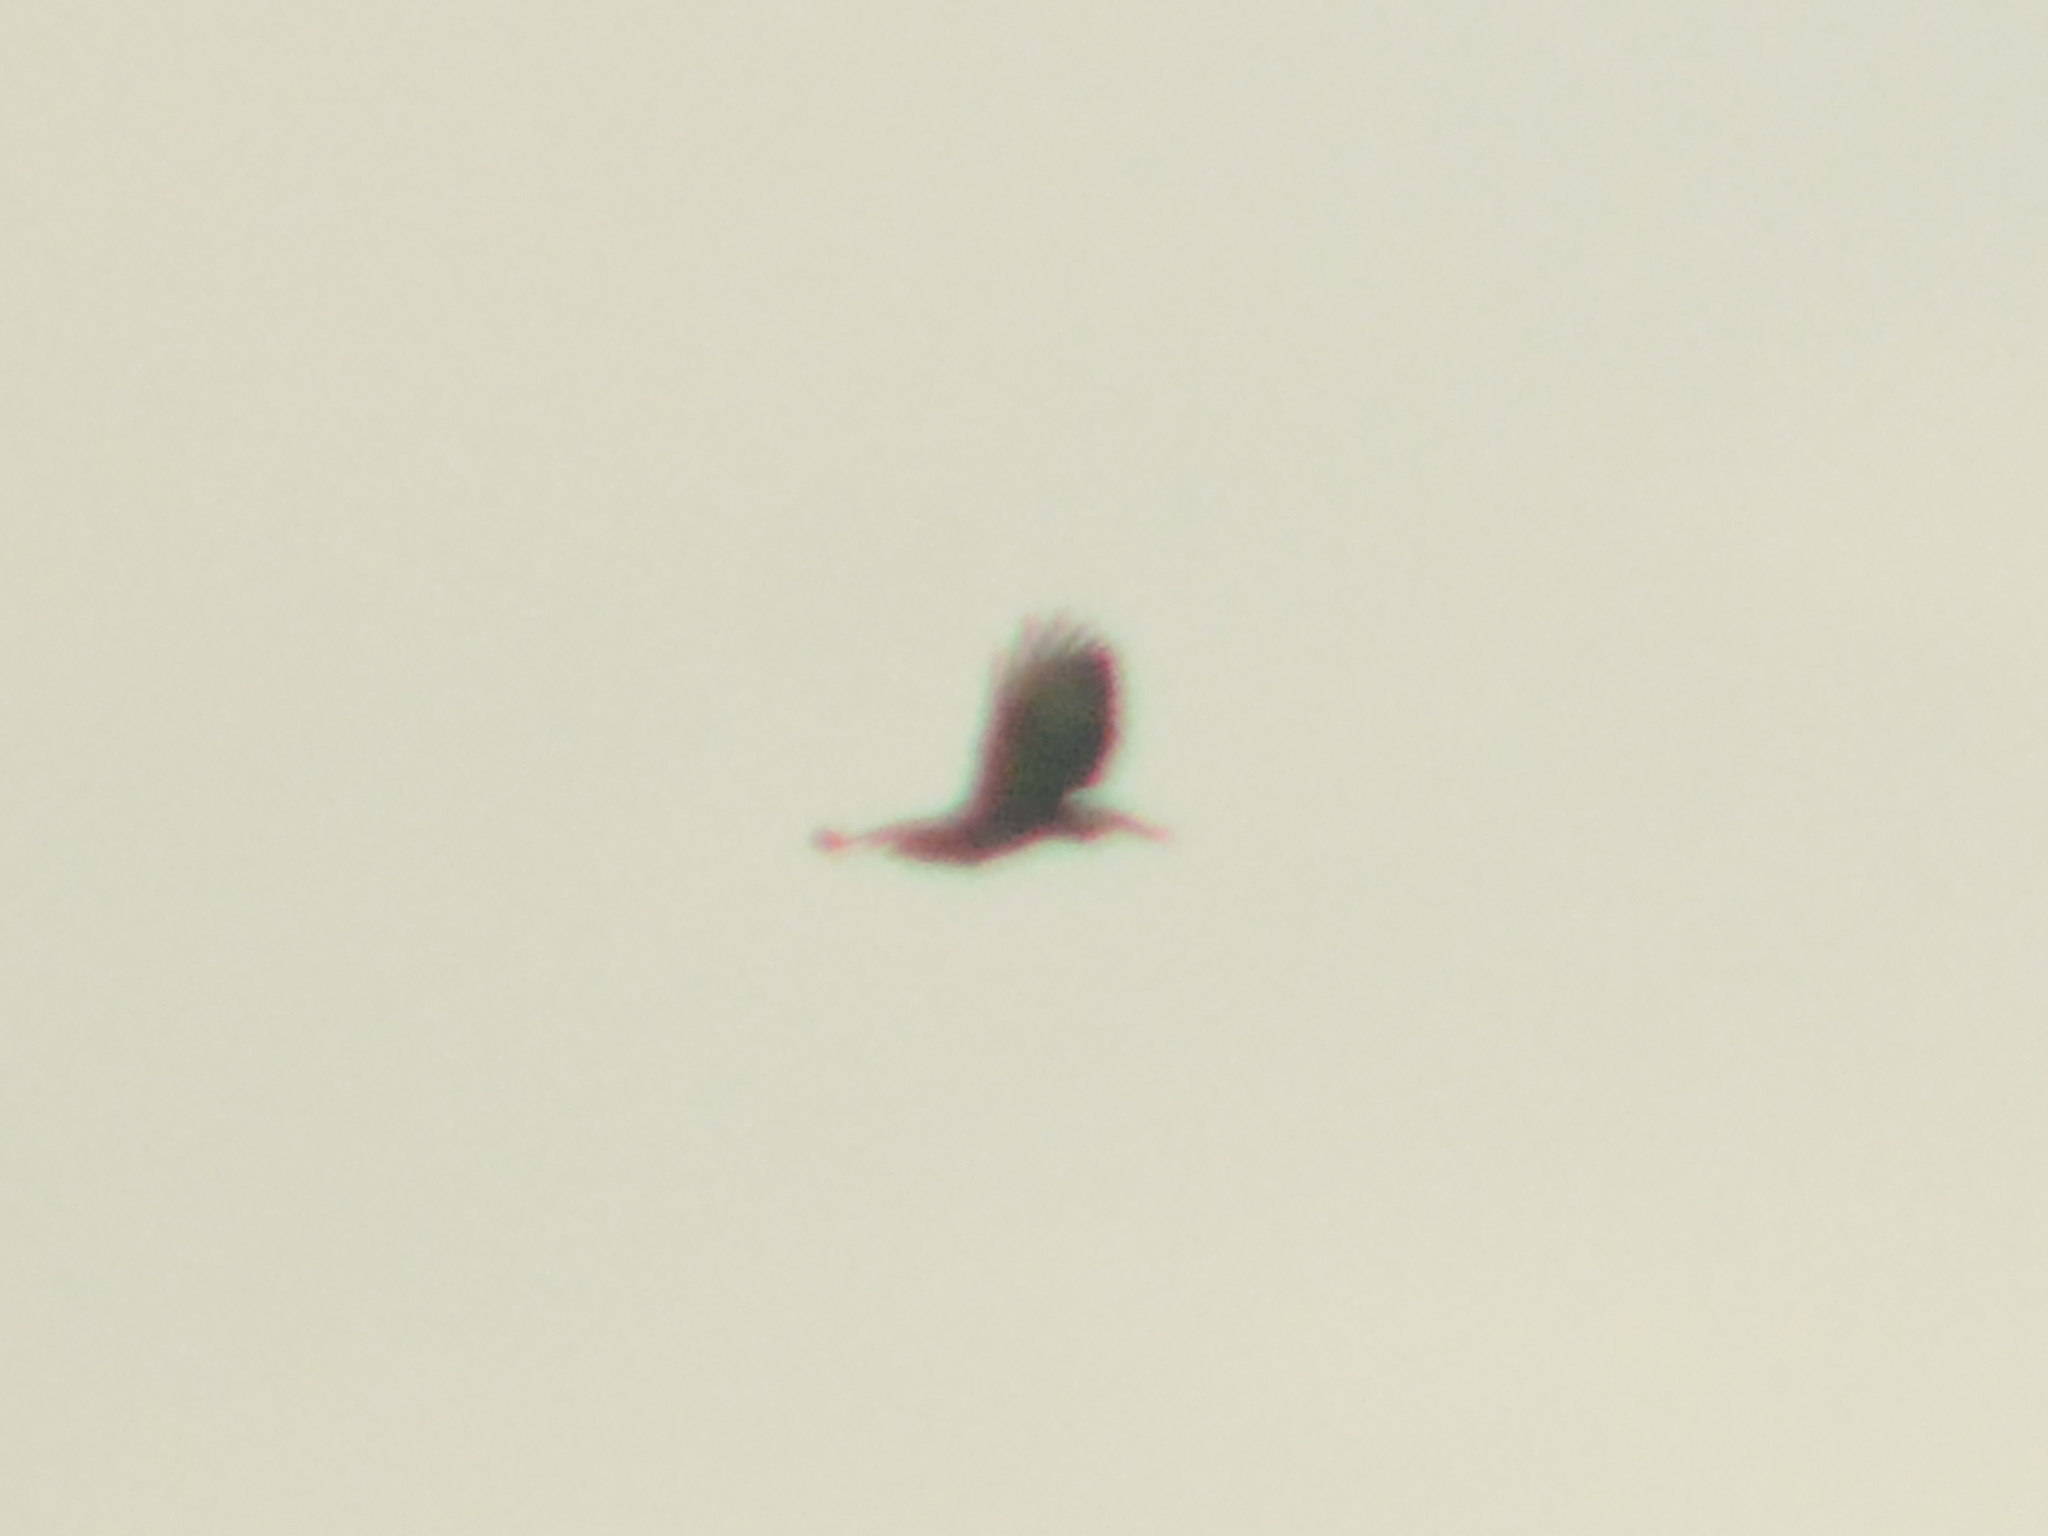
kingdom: Animalia
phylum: Chordata
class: Aves
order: Accipitriformes
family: Accipitridae
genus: Buteo
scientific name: Buteo buteo
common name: Common buzzard
